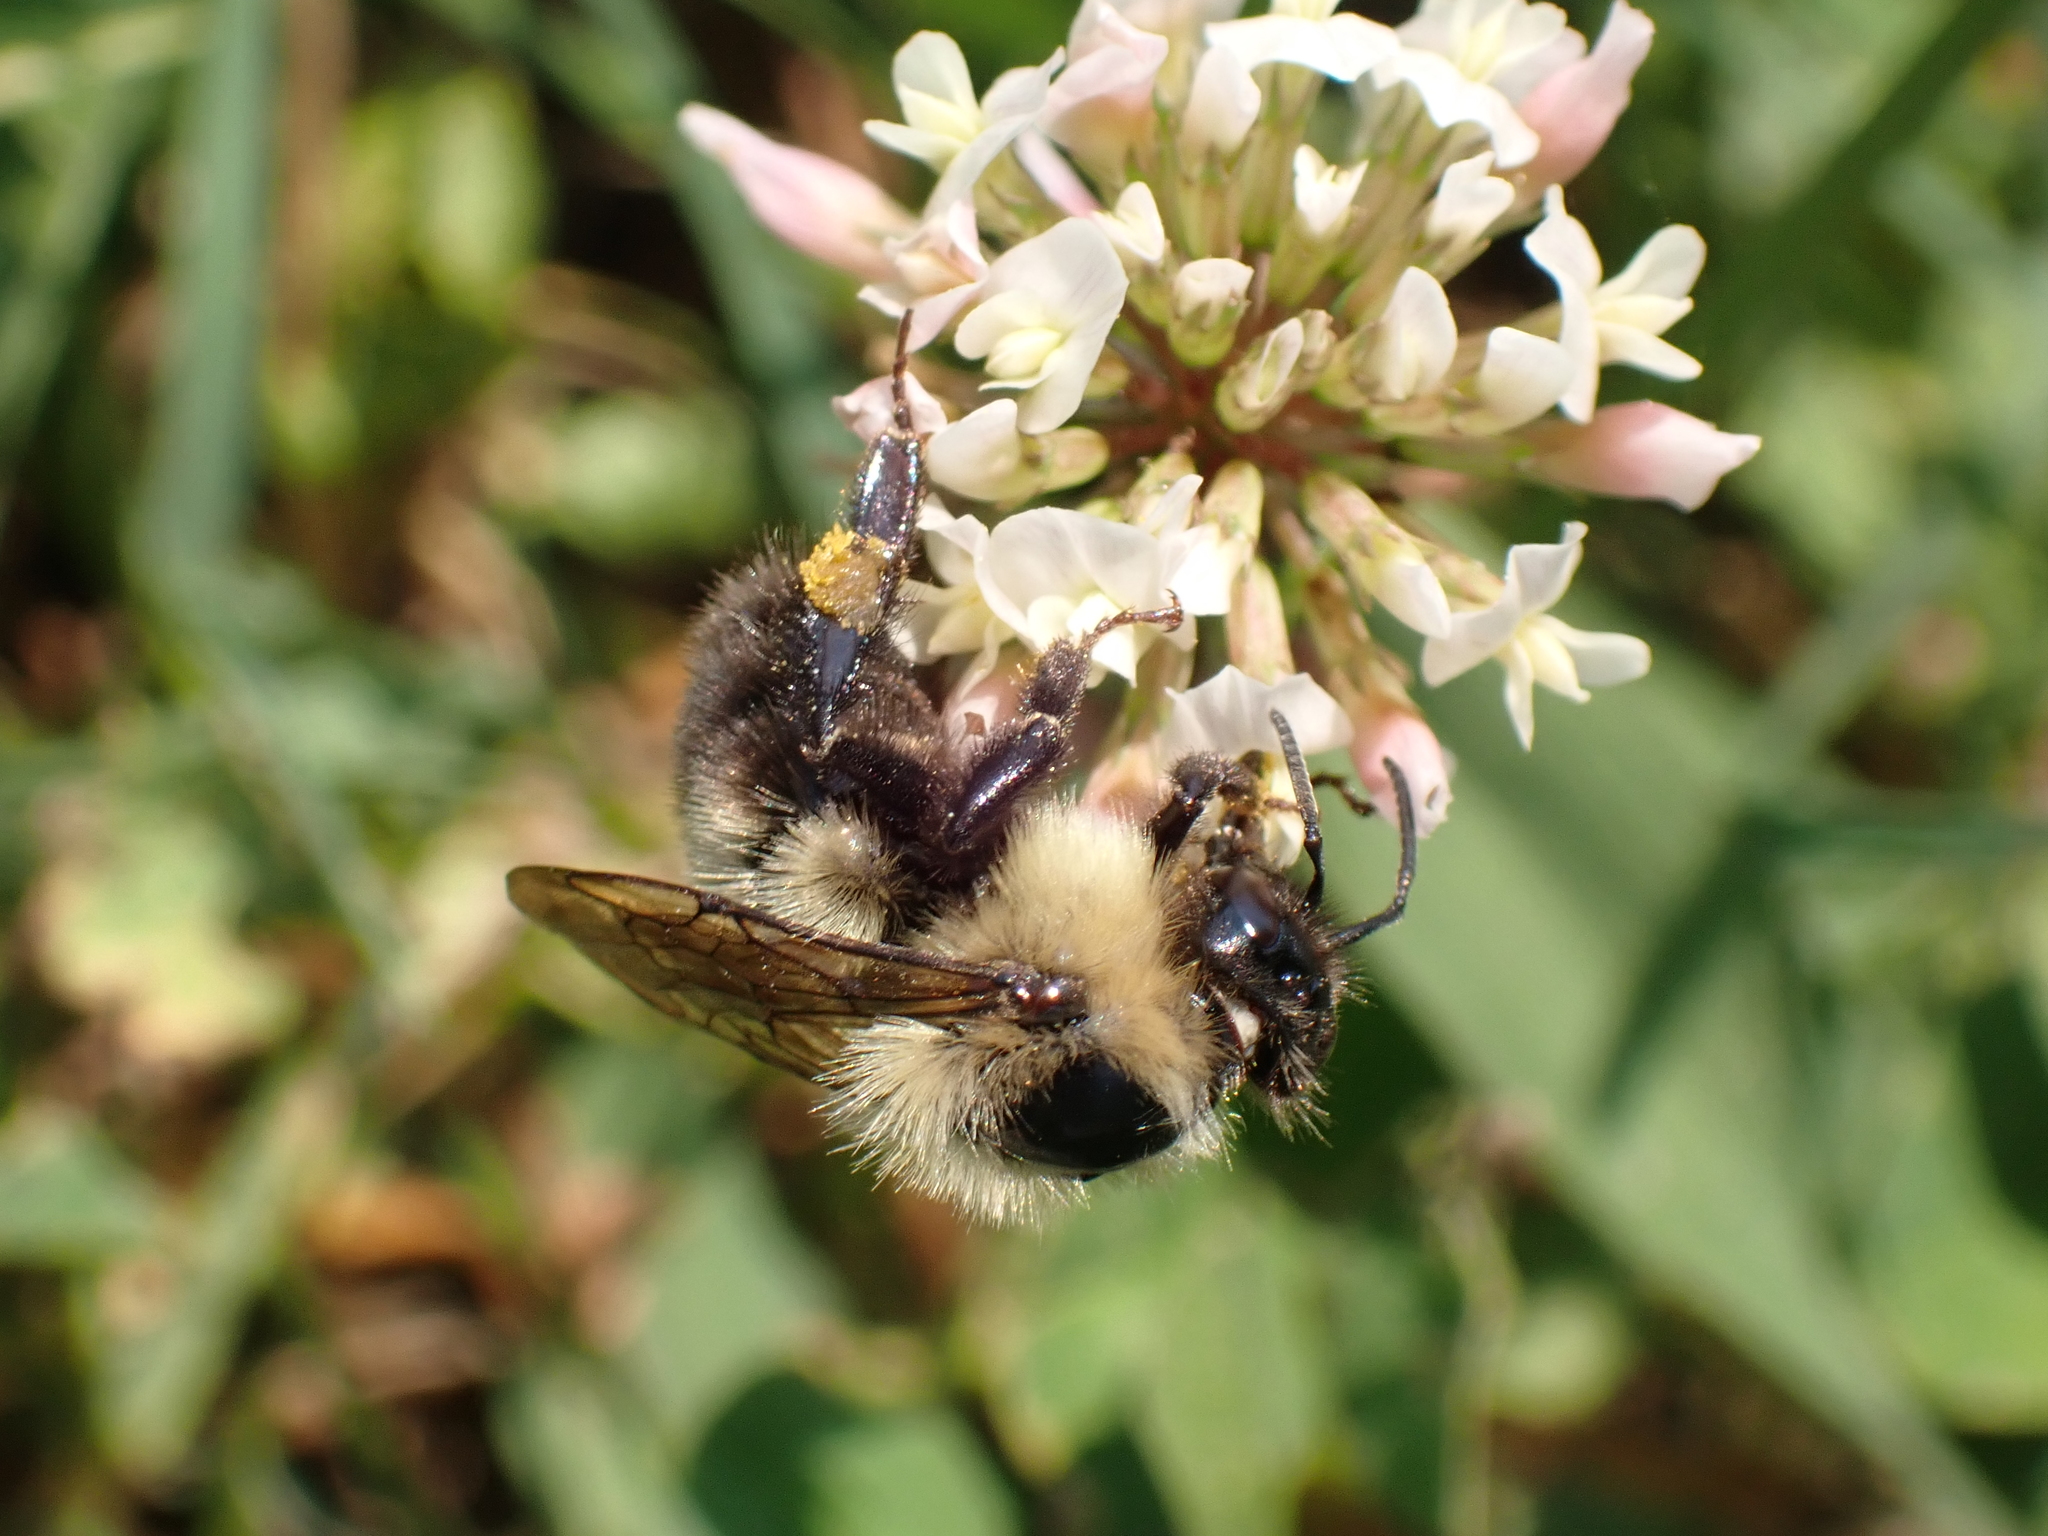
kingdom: Animalia
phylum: Arthropoda
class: Insecta
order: Hymenoptera
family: Apidae
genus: Bombus
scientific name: Bombus bimaculatus
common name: Two-spotted bumble bee
